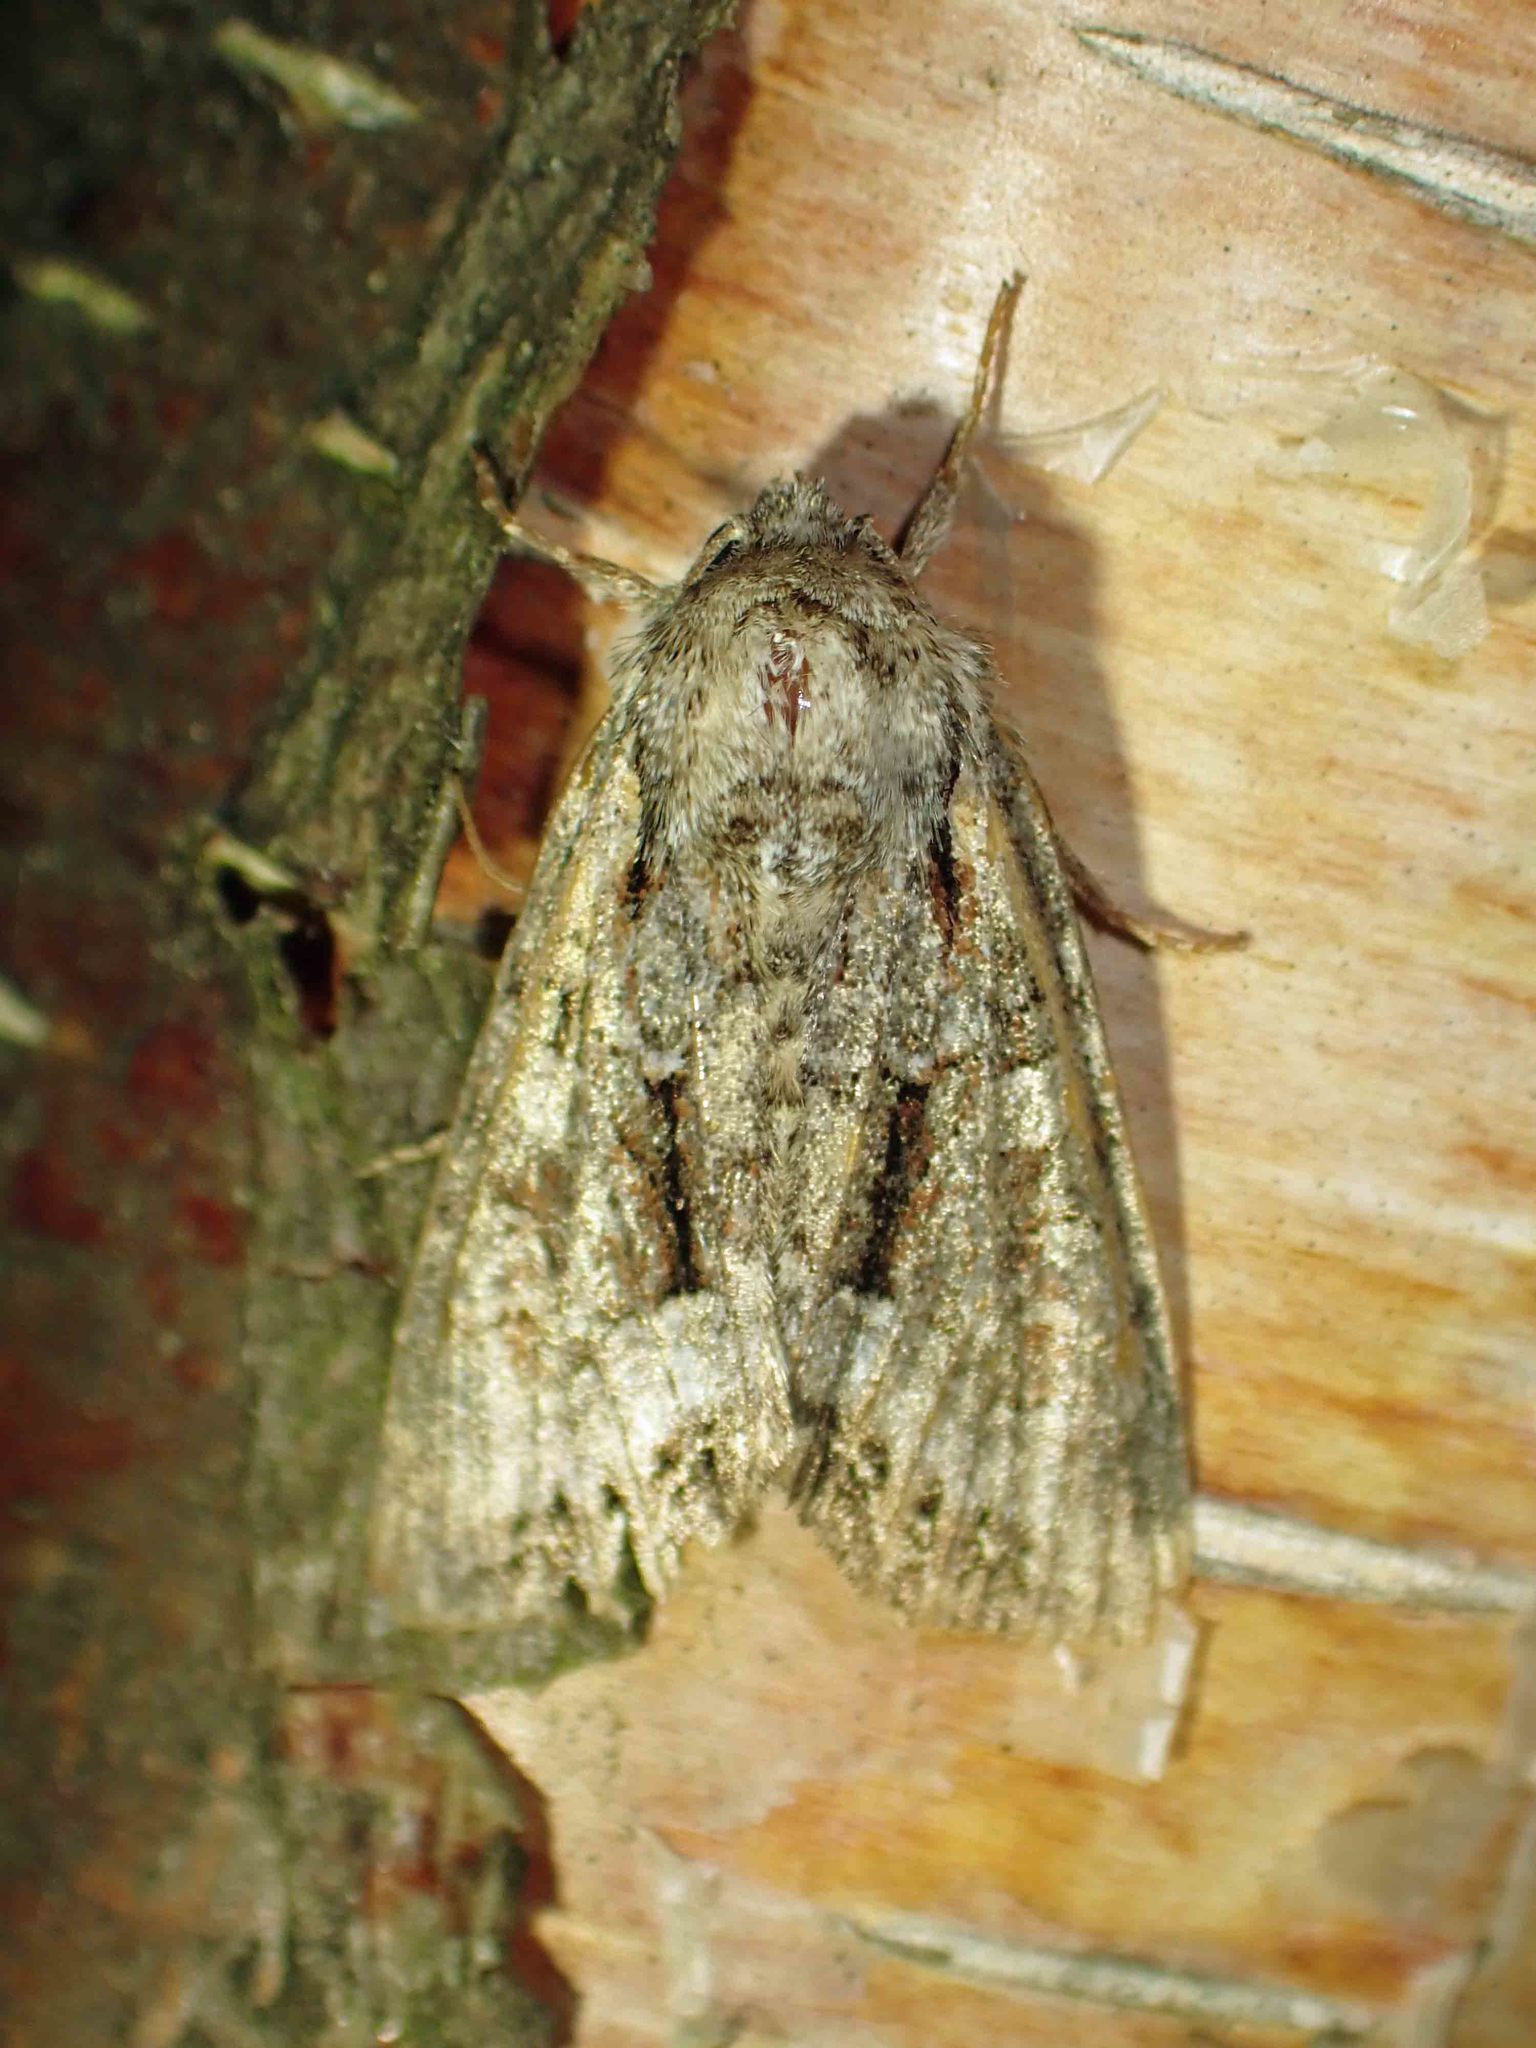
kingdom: Animalia
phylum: Arthropoda
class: Insecta
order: Lepidoptera
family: Noctuidae
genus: Lacanobia
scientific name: Lacanobia grandis
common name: Grand arches moth
